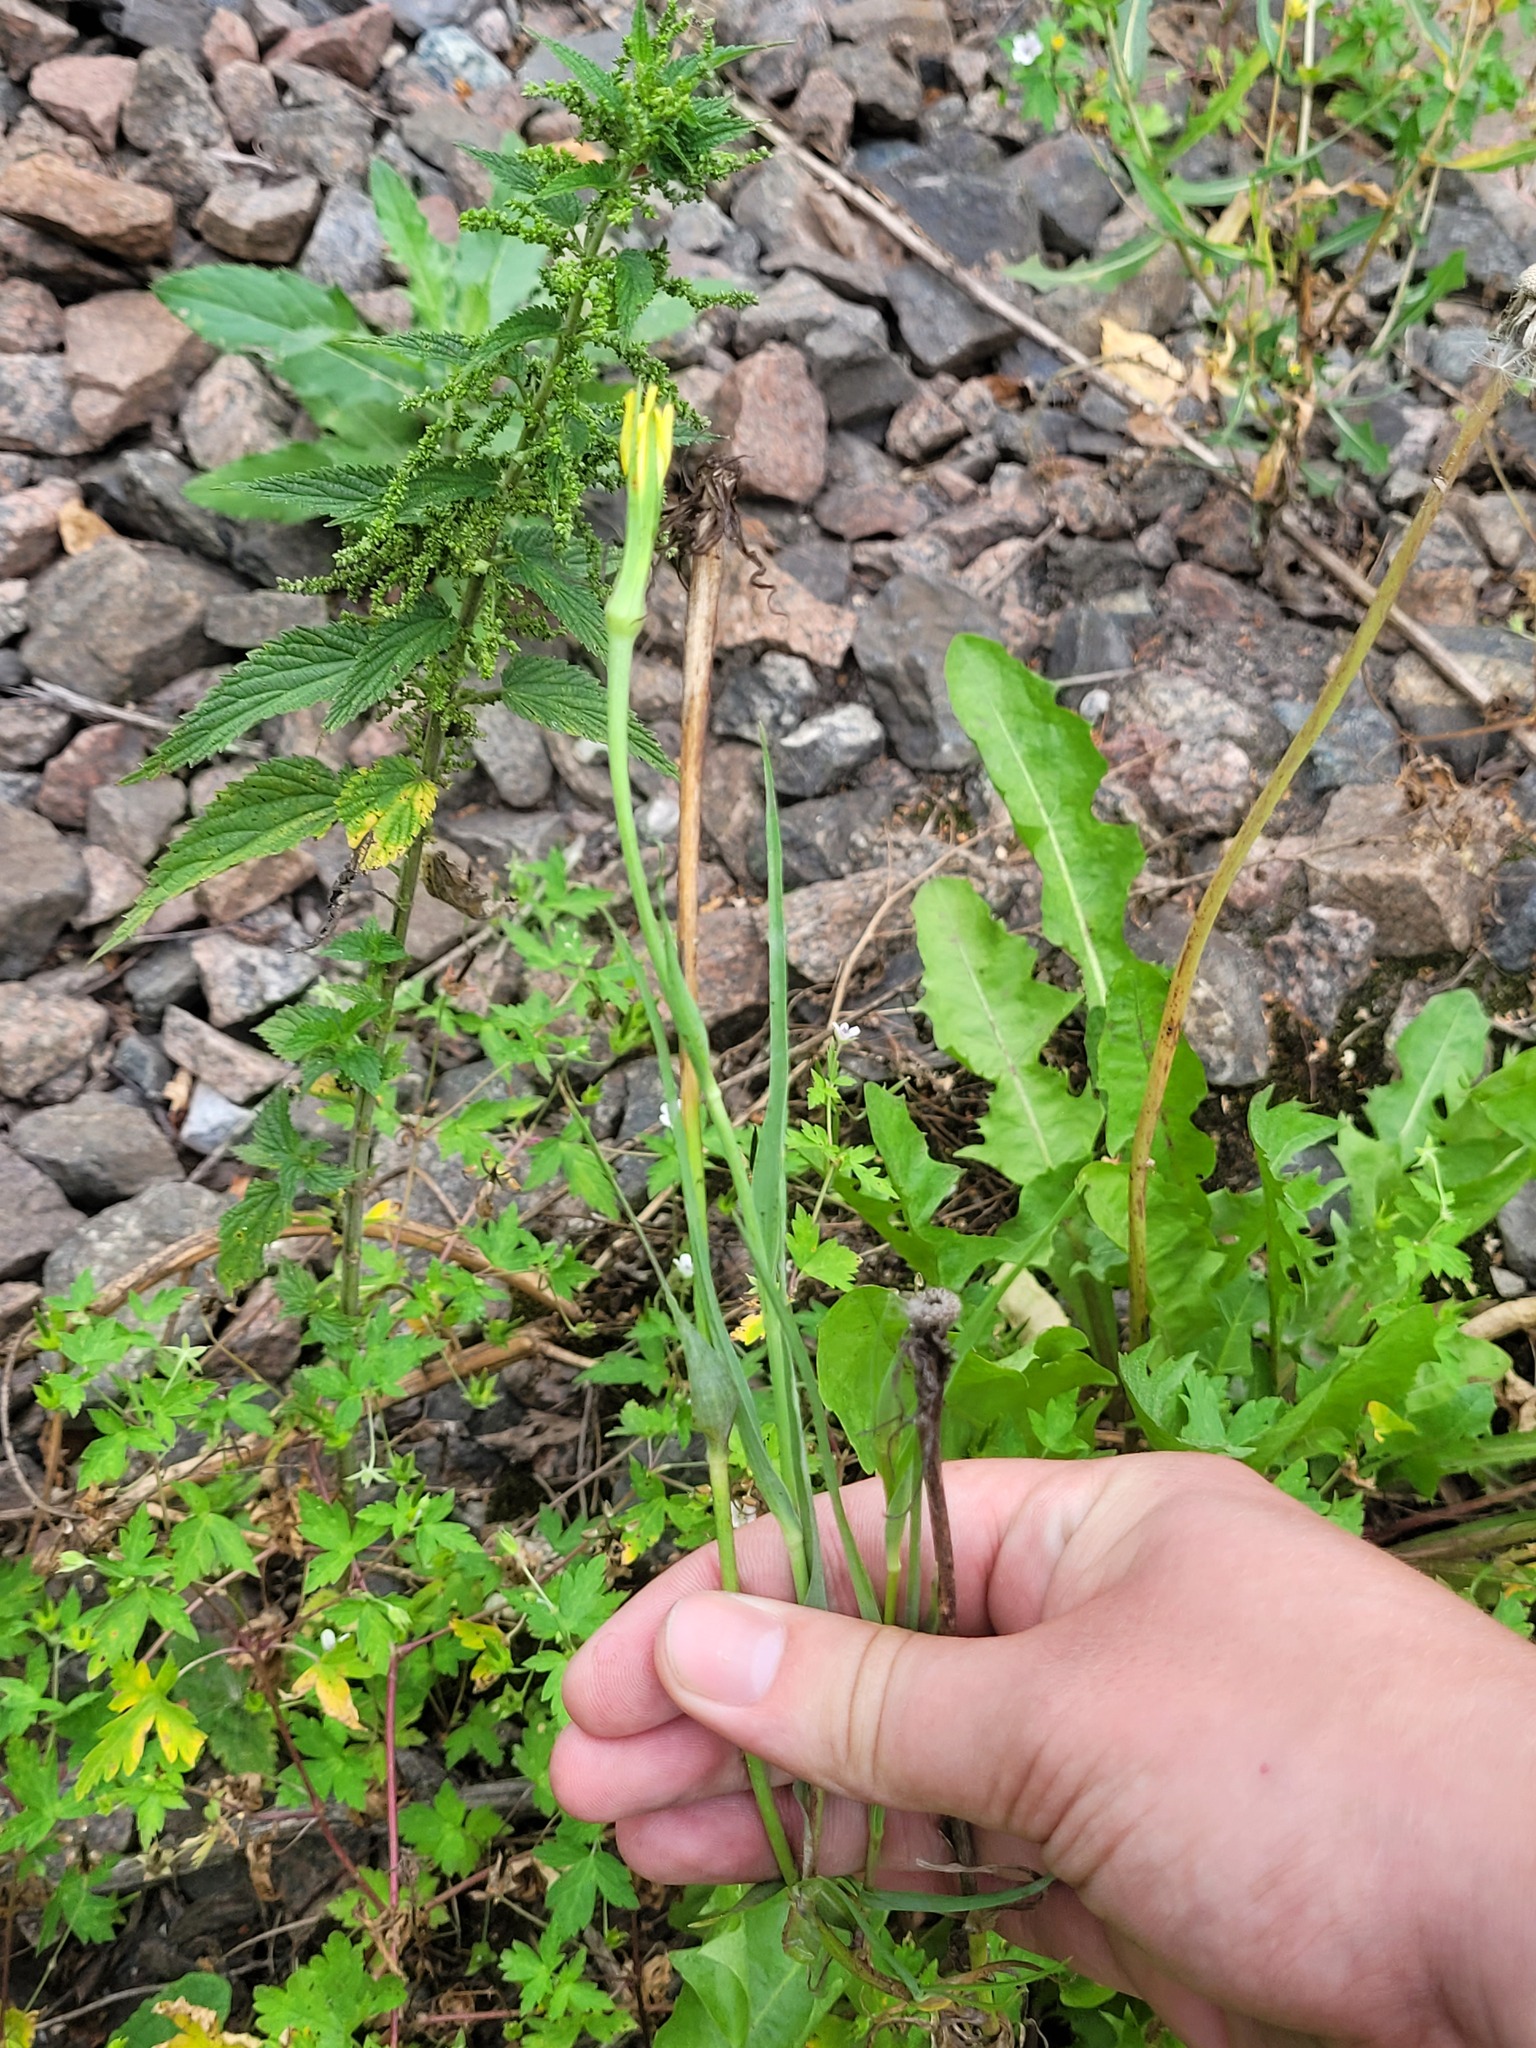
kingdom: Plantae
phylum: Tracheophyta
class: Magnoliopsida
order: Asterales
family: Asteraceae
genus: Tragopogon
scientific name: Tragopogon dubius
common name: Yellow salsify
